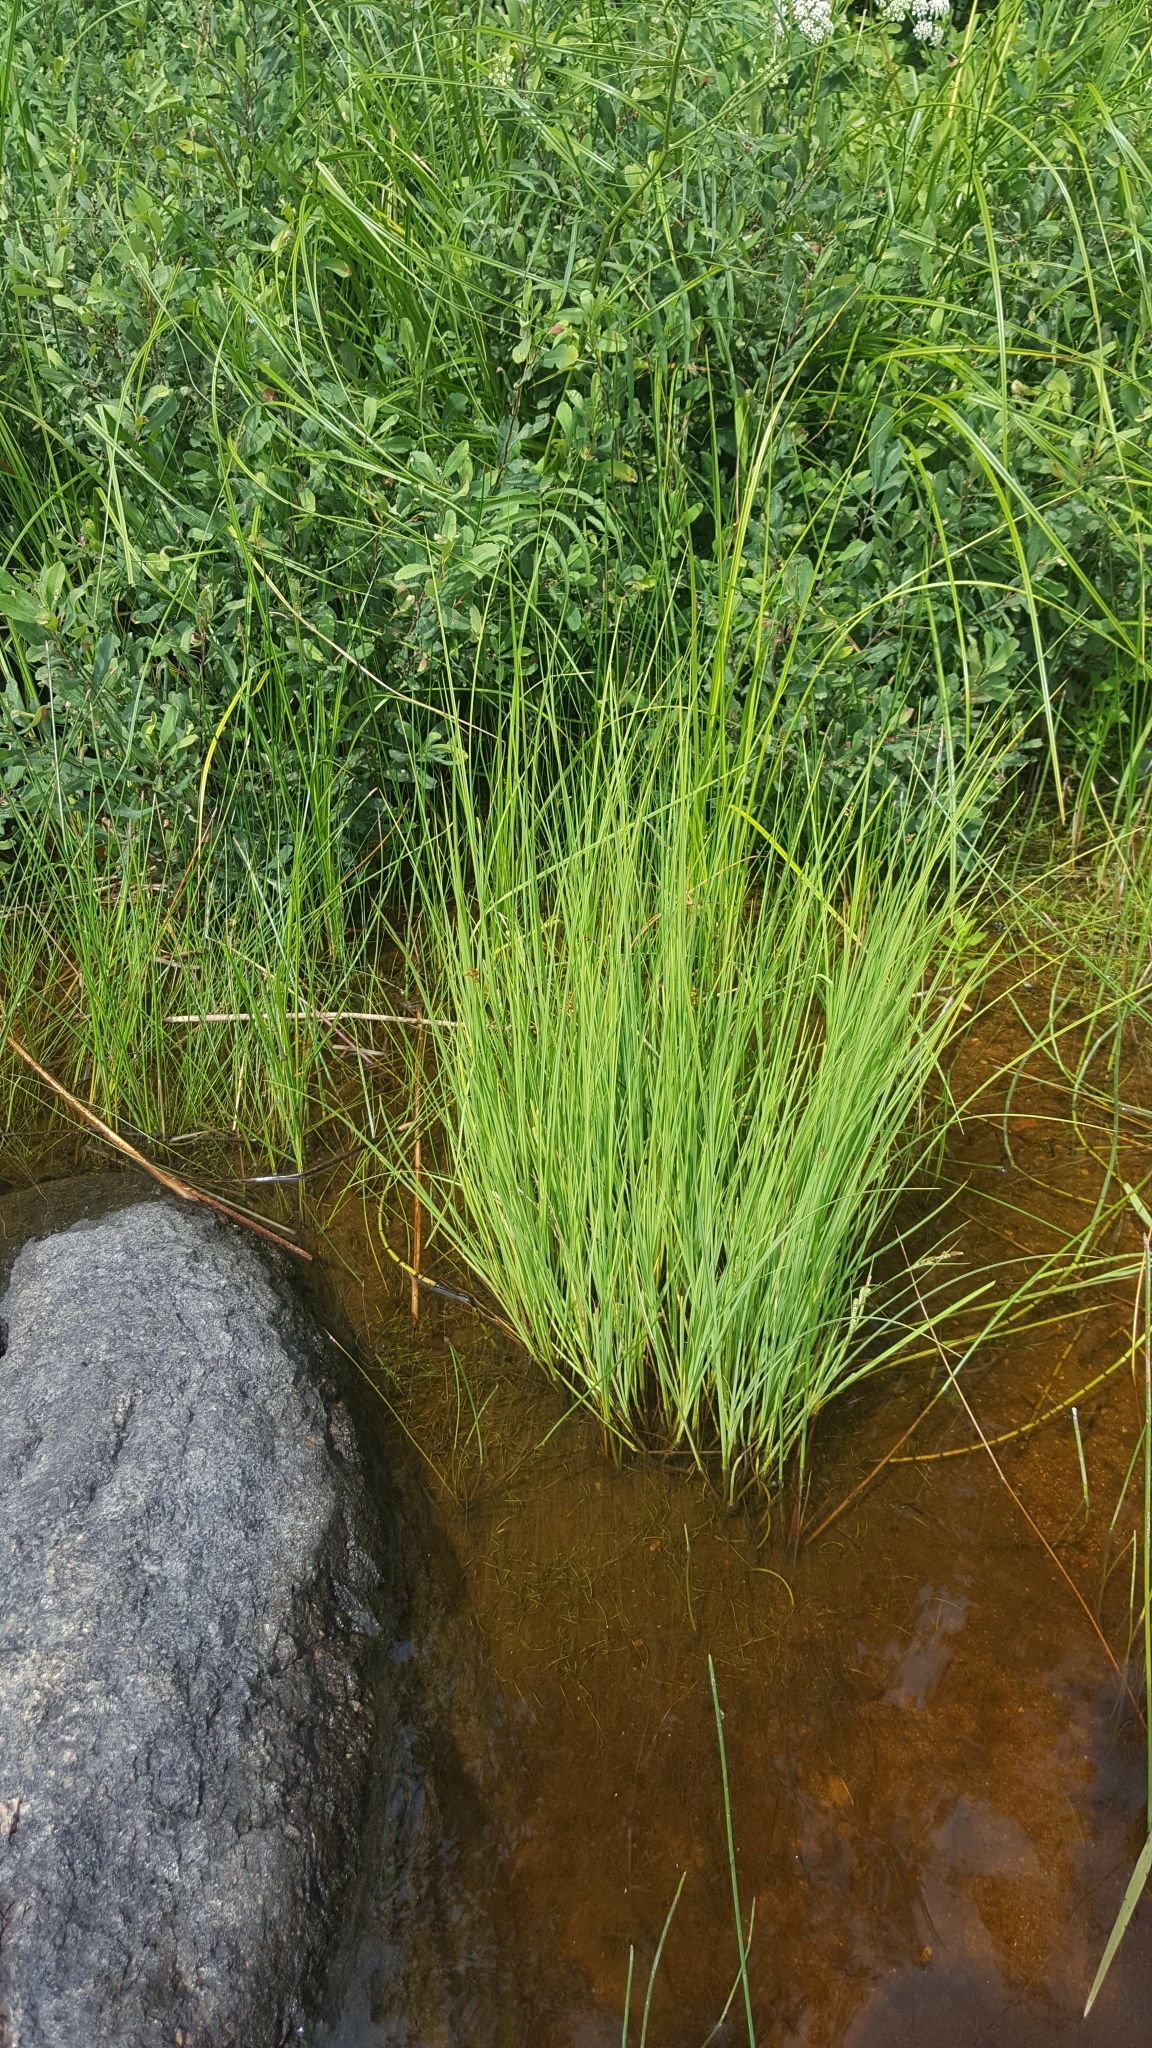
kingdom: Plantae
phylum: Tracheophyta
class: Liliopsida
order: Poales
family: Cyperaceae
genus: Carex
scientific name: Carex lenticularis
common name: Lakeshore sedge
